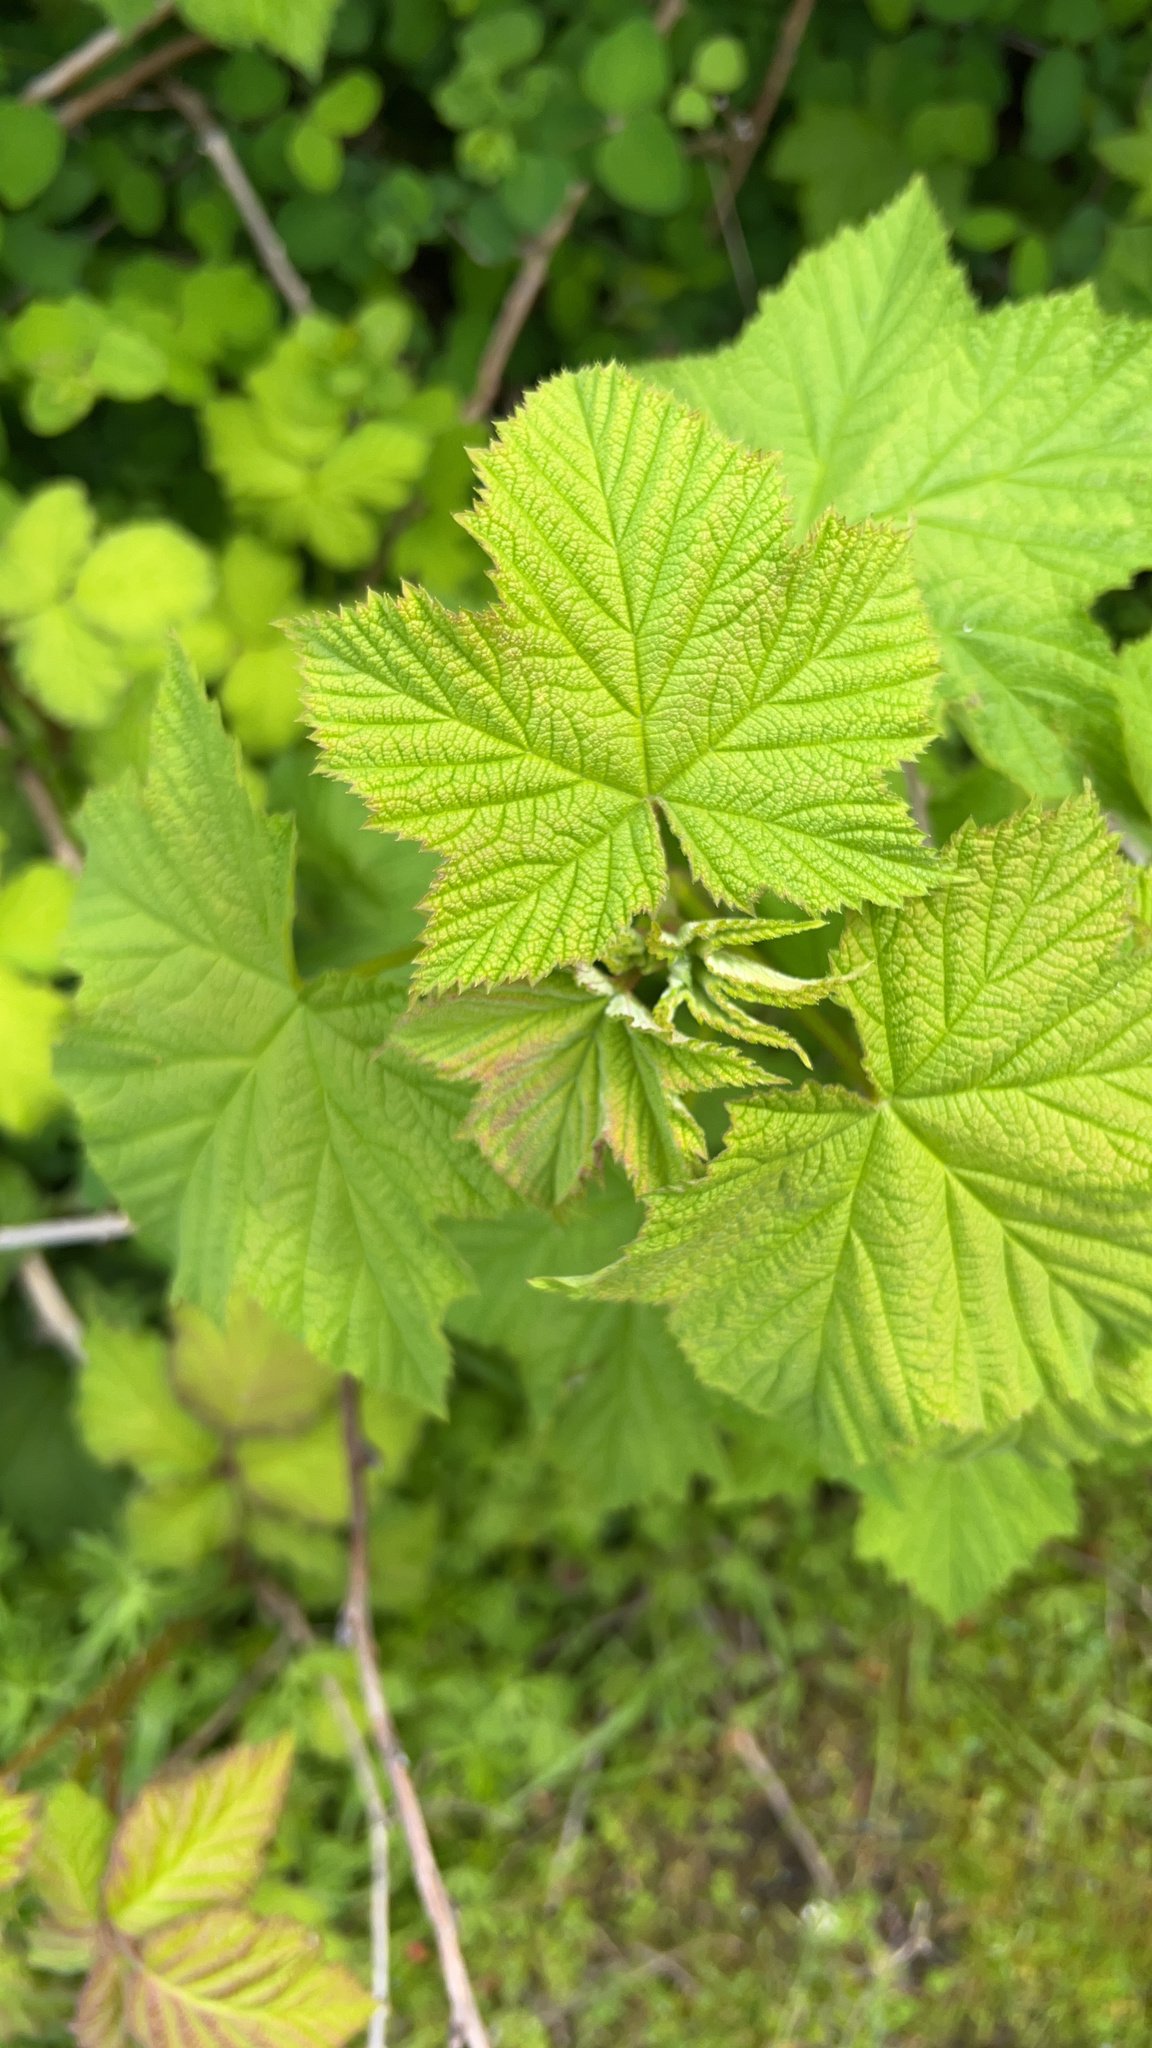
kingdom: Plantae
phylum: Tracheophyta
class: Magnoliopsida
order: Rosales
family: Rosaceae
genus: Rubus
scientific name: Rubus parviflorus
